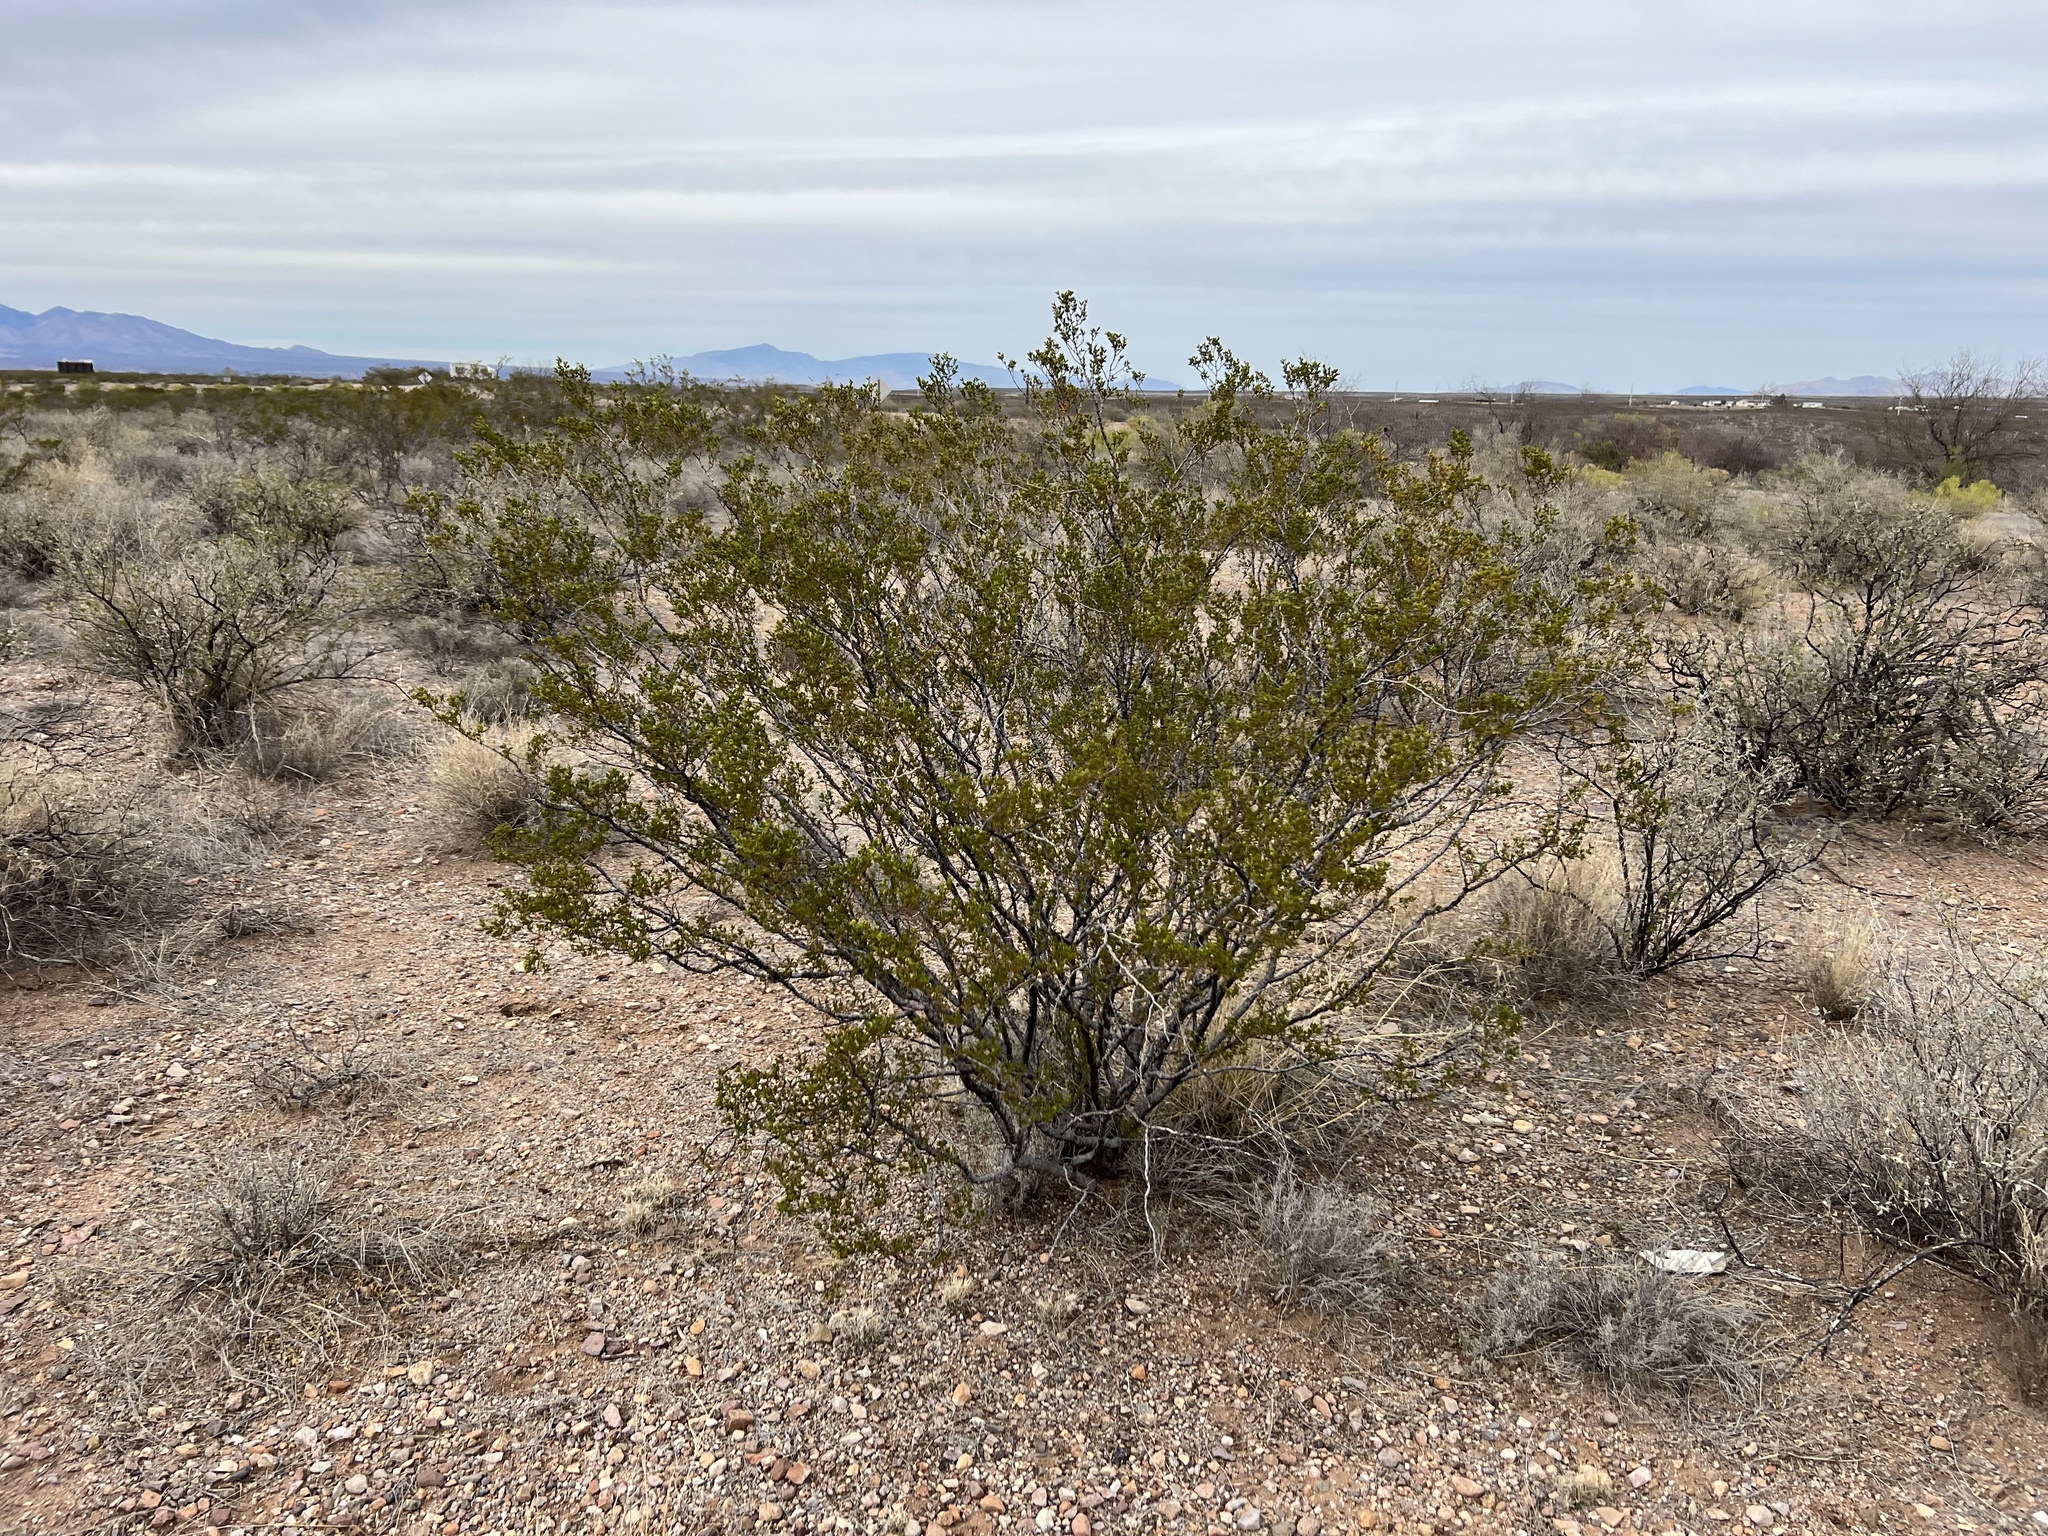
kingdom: Plantae
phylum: Tracheophyta
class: Magnoliopsida
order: Zygophyllales
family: Zygophyllaceae
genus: Larrea
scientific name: Larrea tridentata
